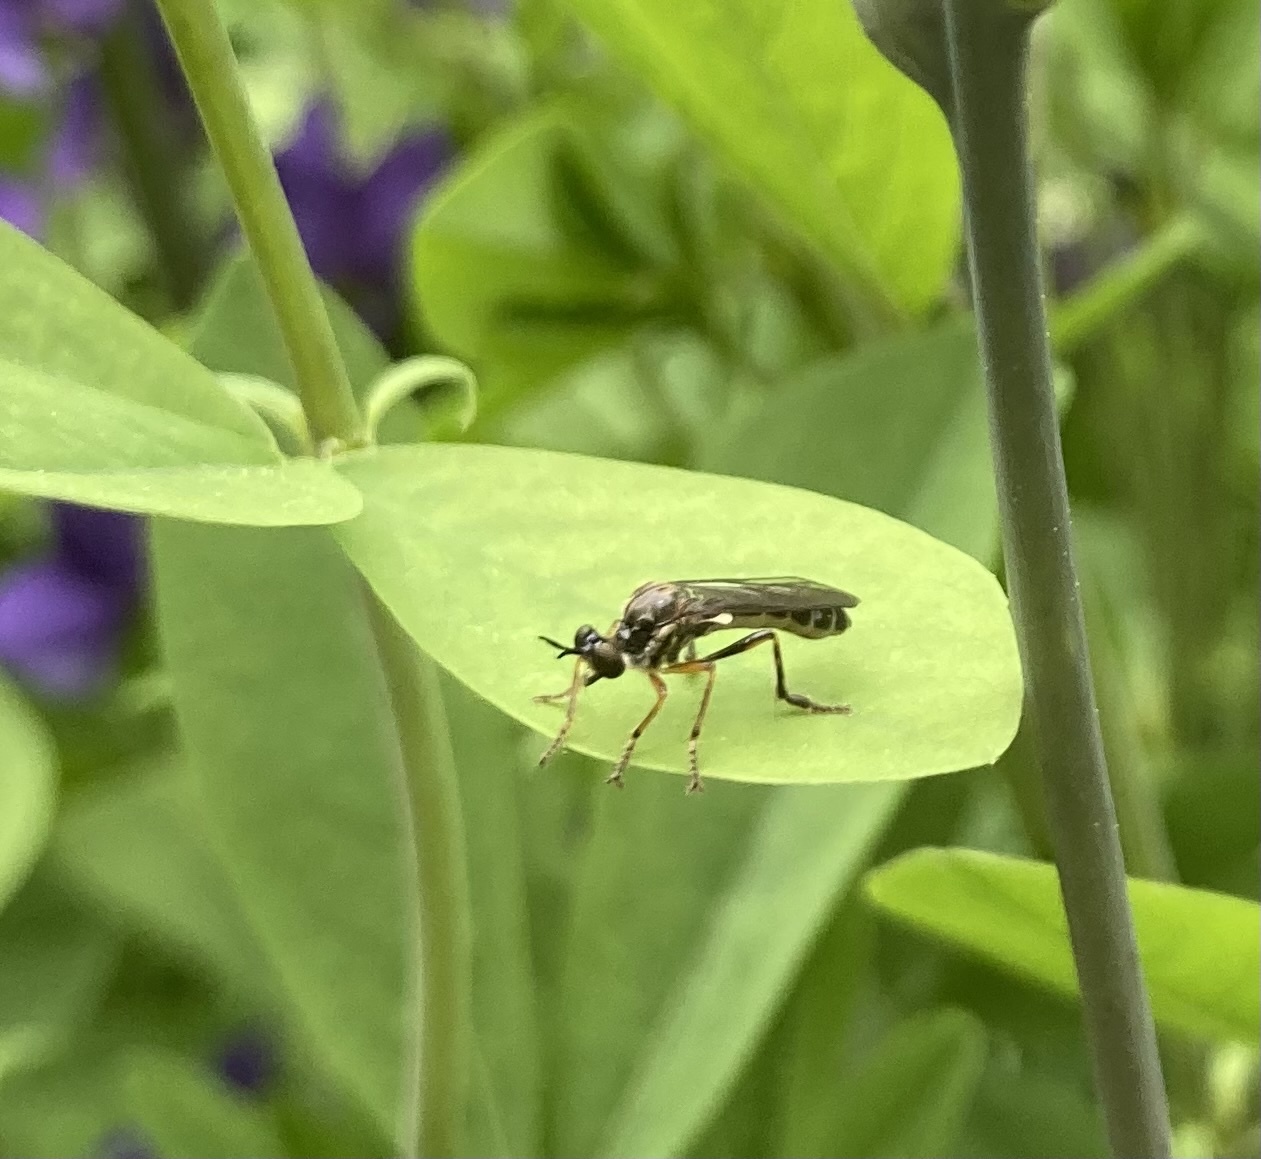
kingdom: Animalia
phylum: Arthropoda
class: Insecta
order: Diptera
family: Asilidae
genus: Dioctria
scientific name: Dioctria hyalipennis
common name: Stripe-legged robberfly
